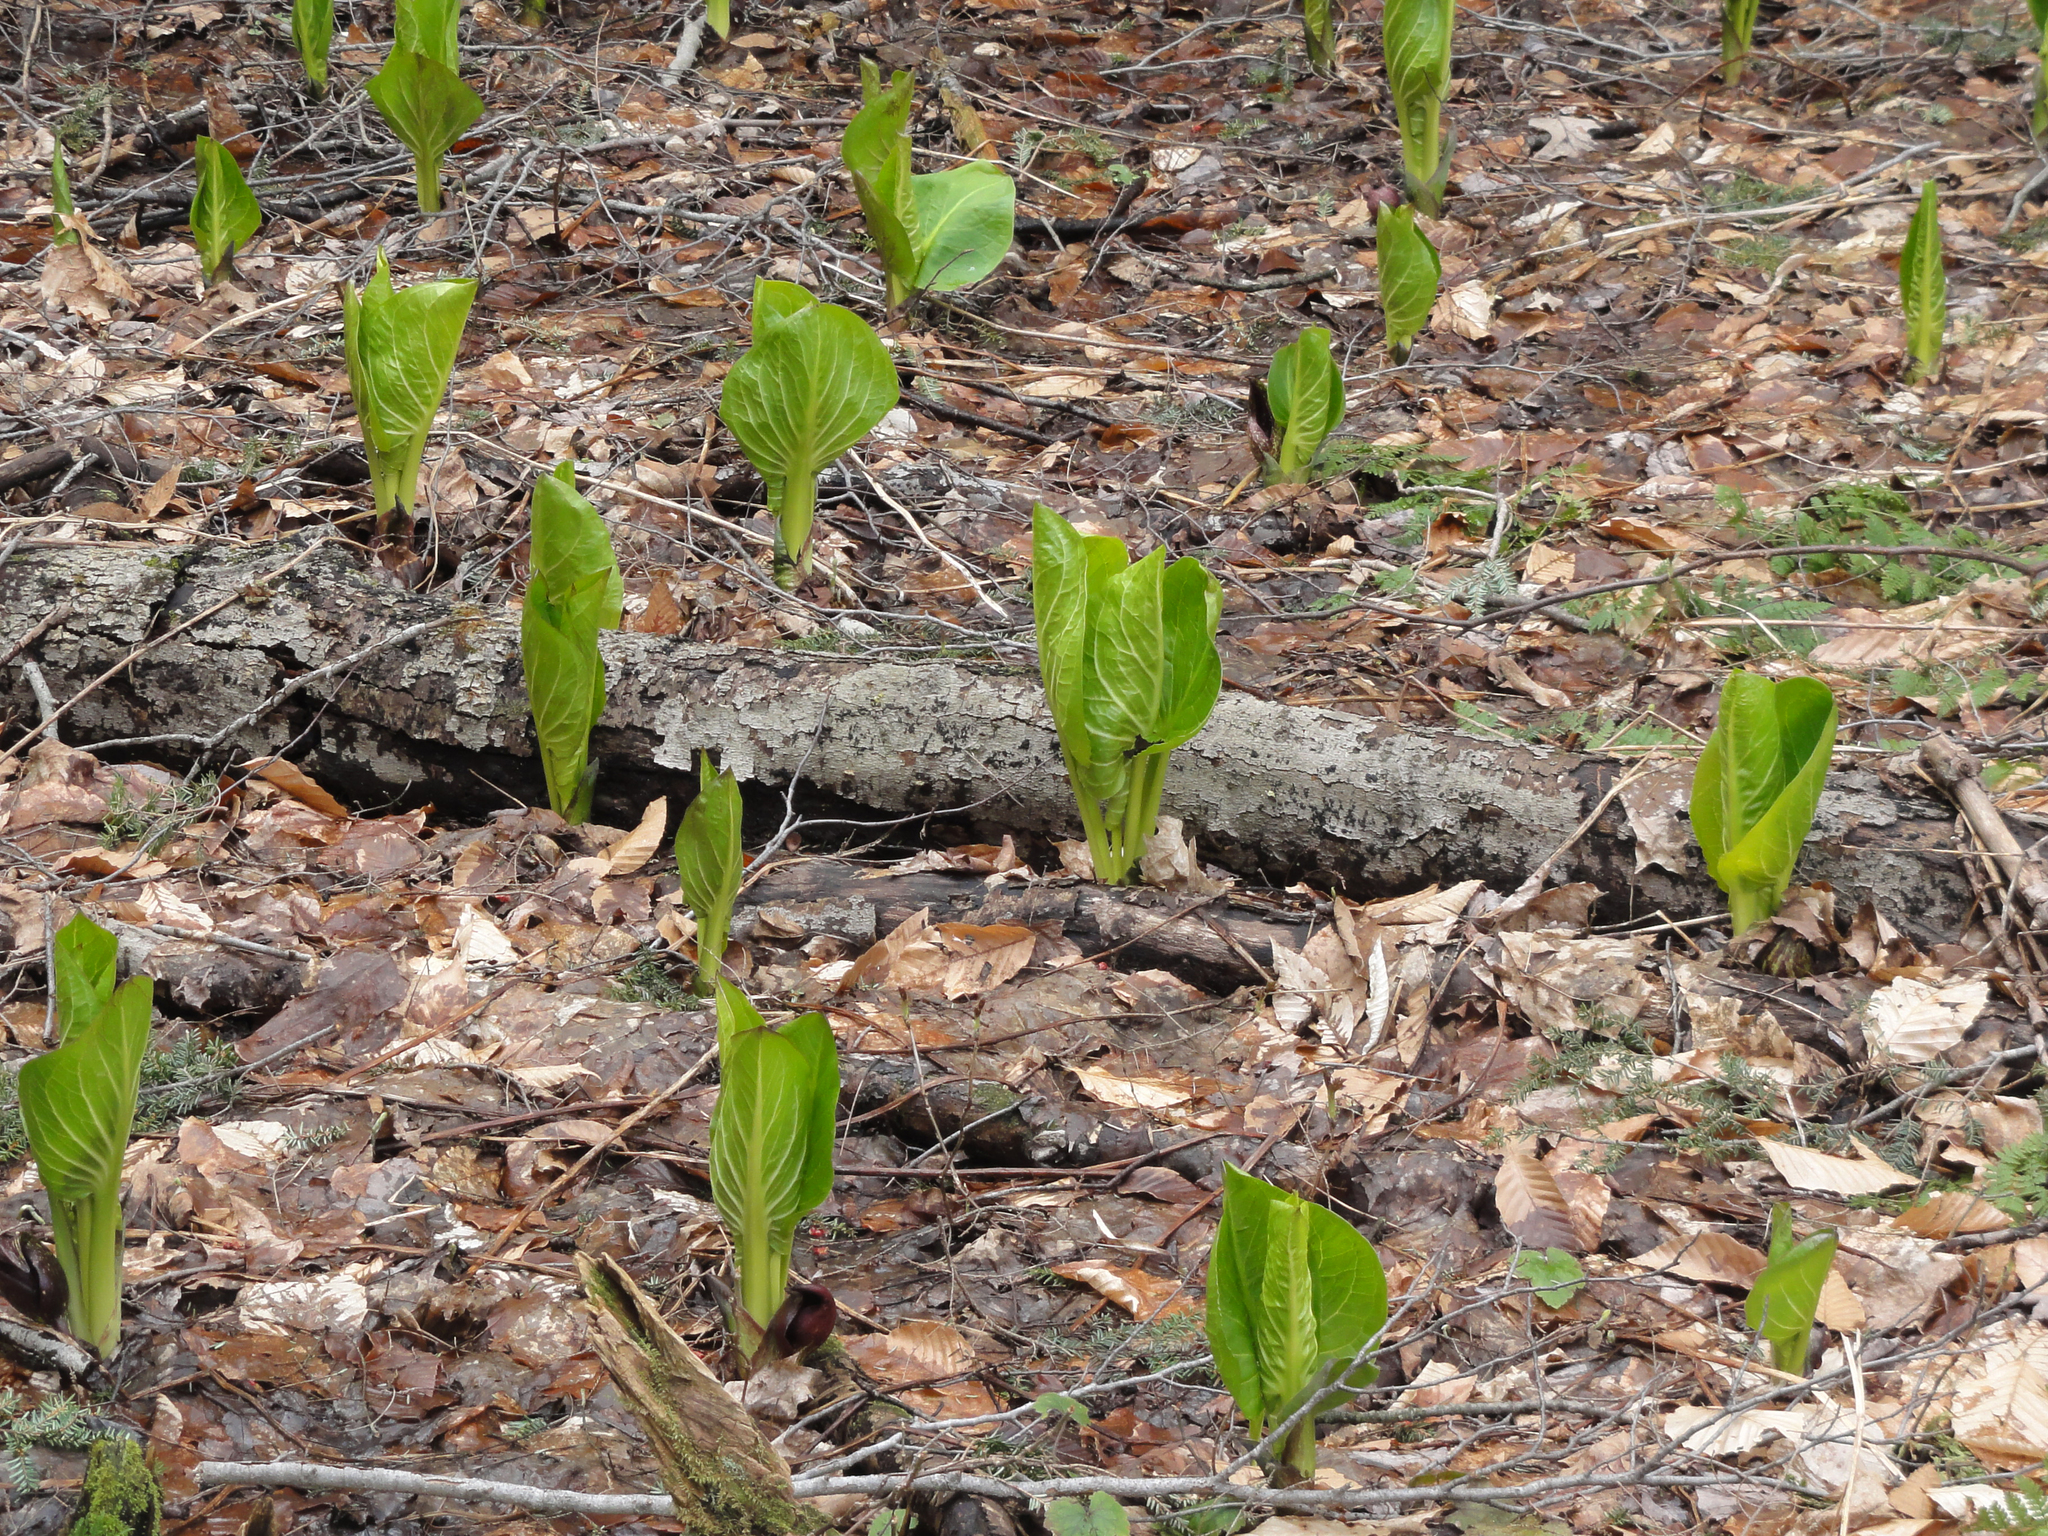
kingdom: Plantae
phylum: Tracheophyta
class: Liliopsida
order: Alismatales
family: Araceae
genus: Symplocarpus
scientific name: Symplocarpus foetidus
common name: Eastern skunk cabbage
